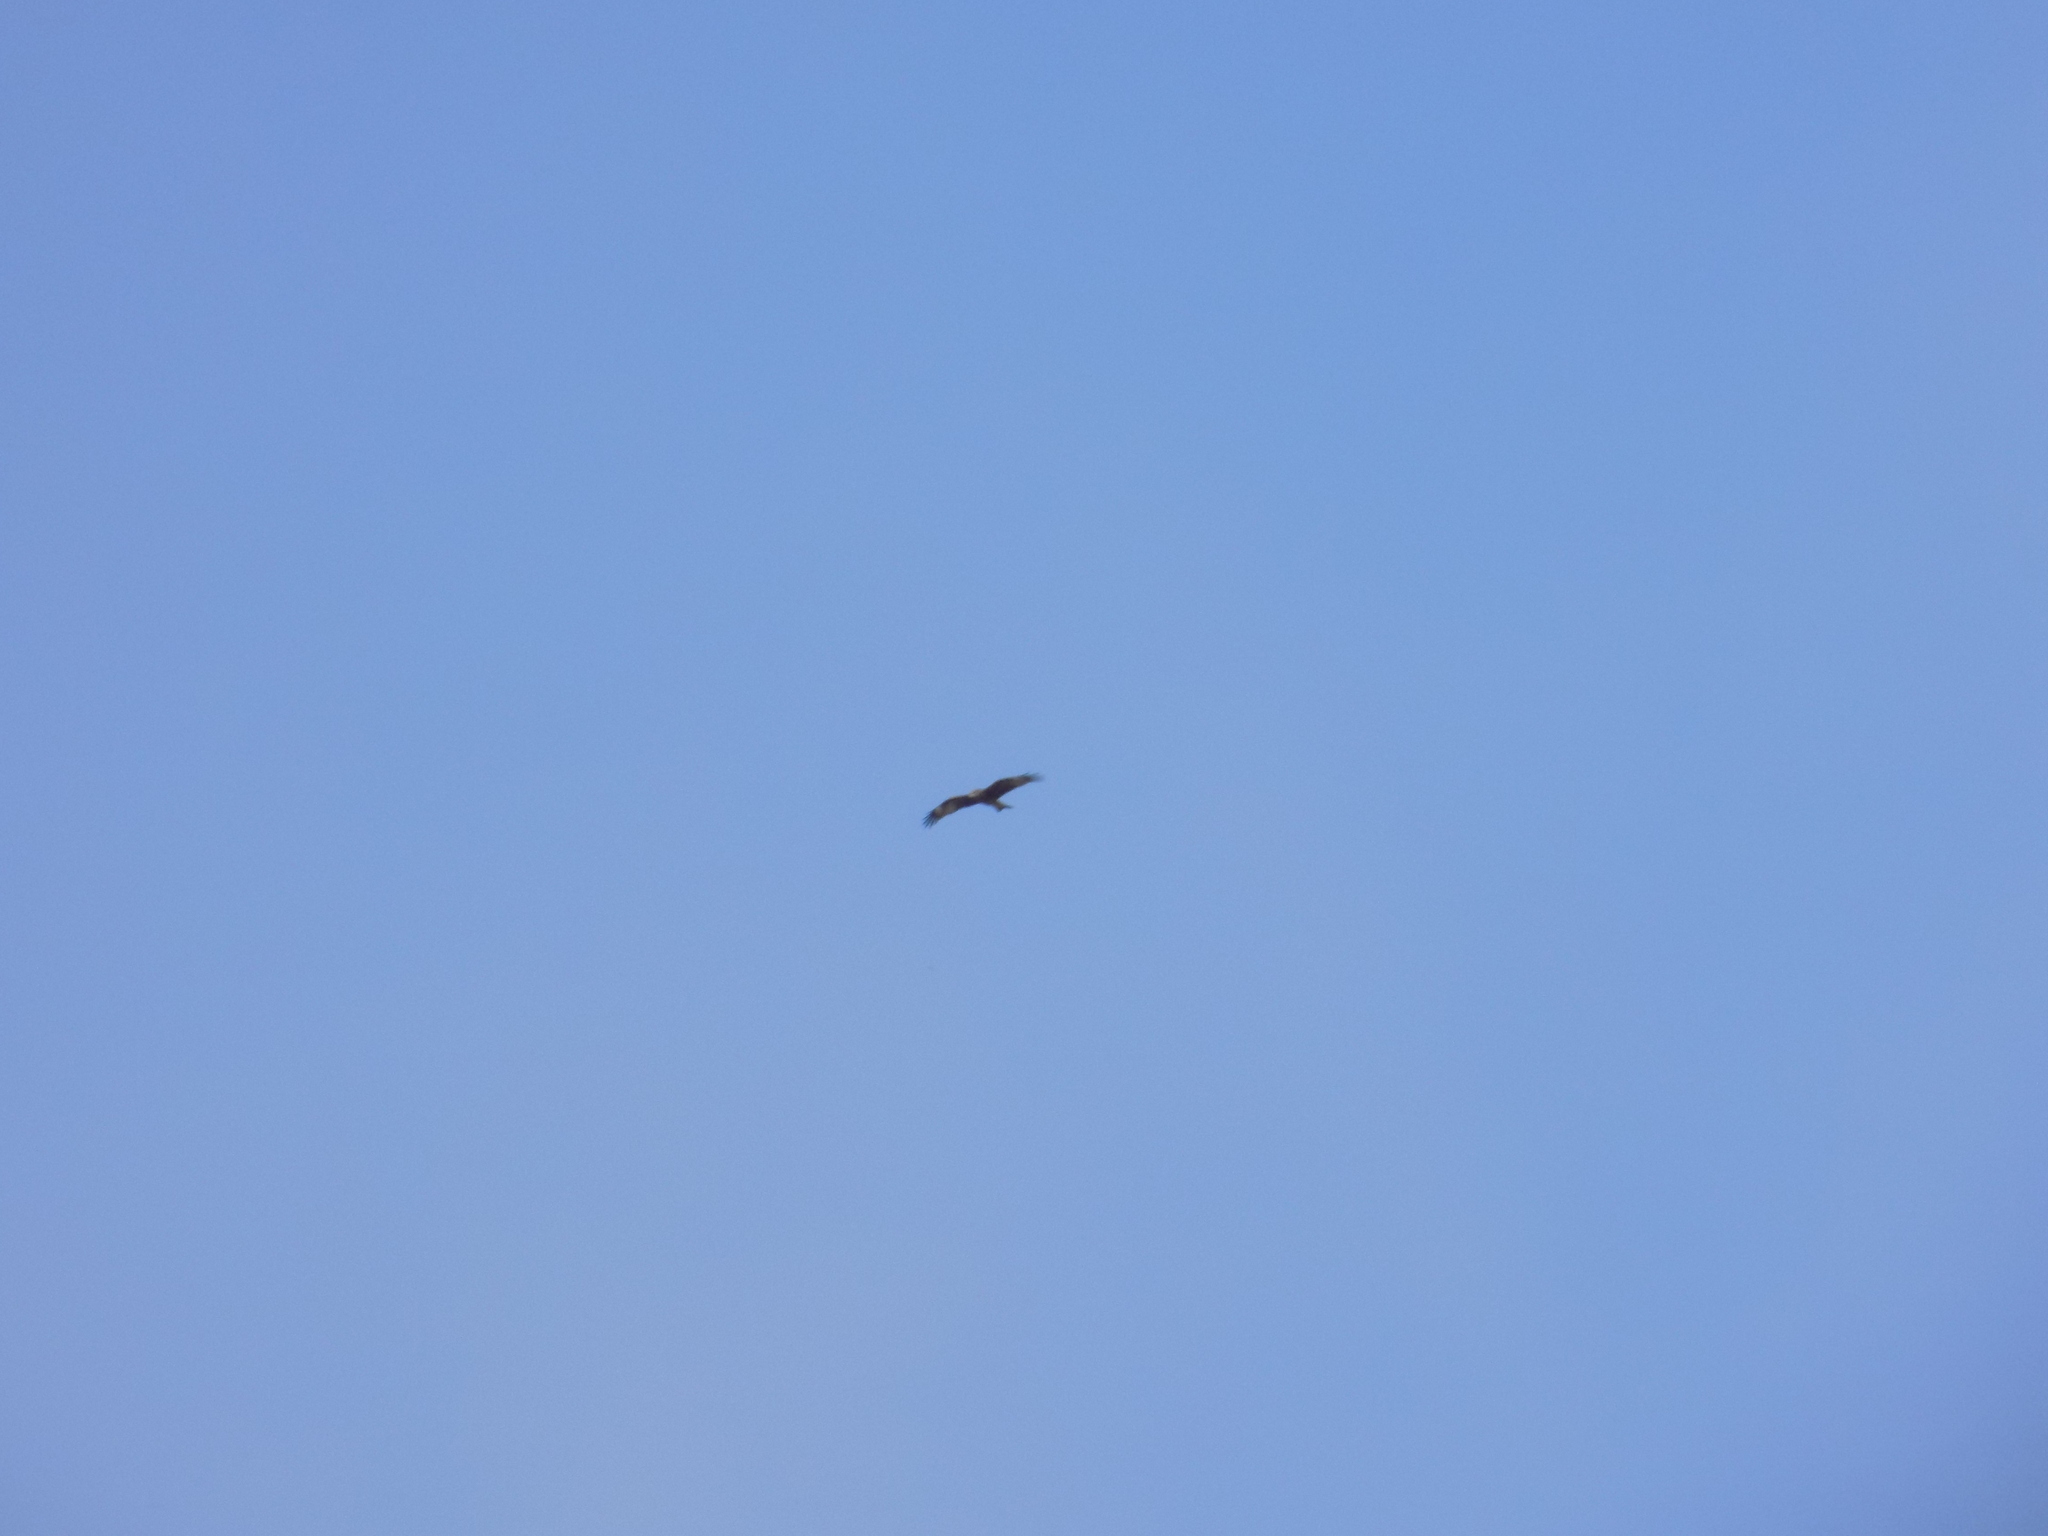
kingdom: Animalia
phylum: Chordata
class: Aves
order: Accipitriformes
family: Accipitridae
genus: Milvus
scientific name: Milvus migrans
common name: Black kite
